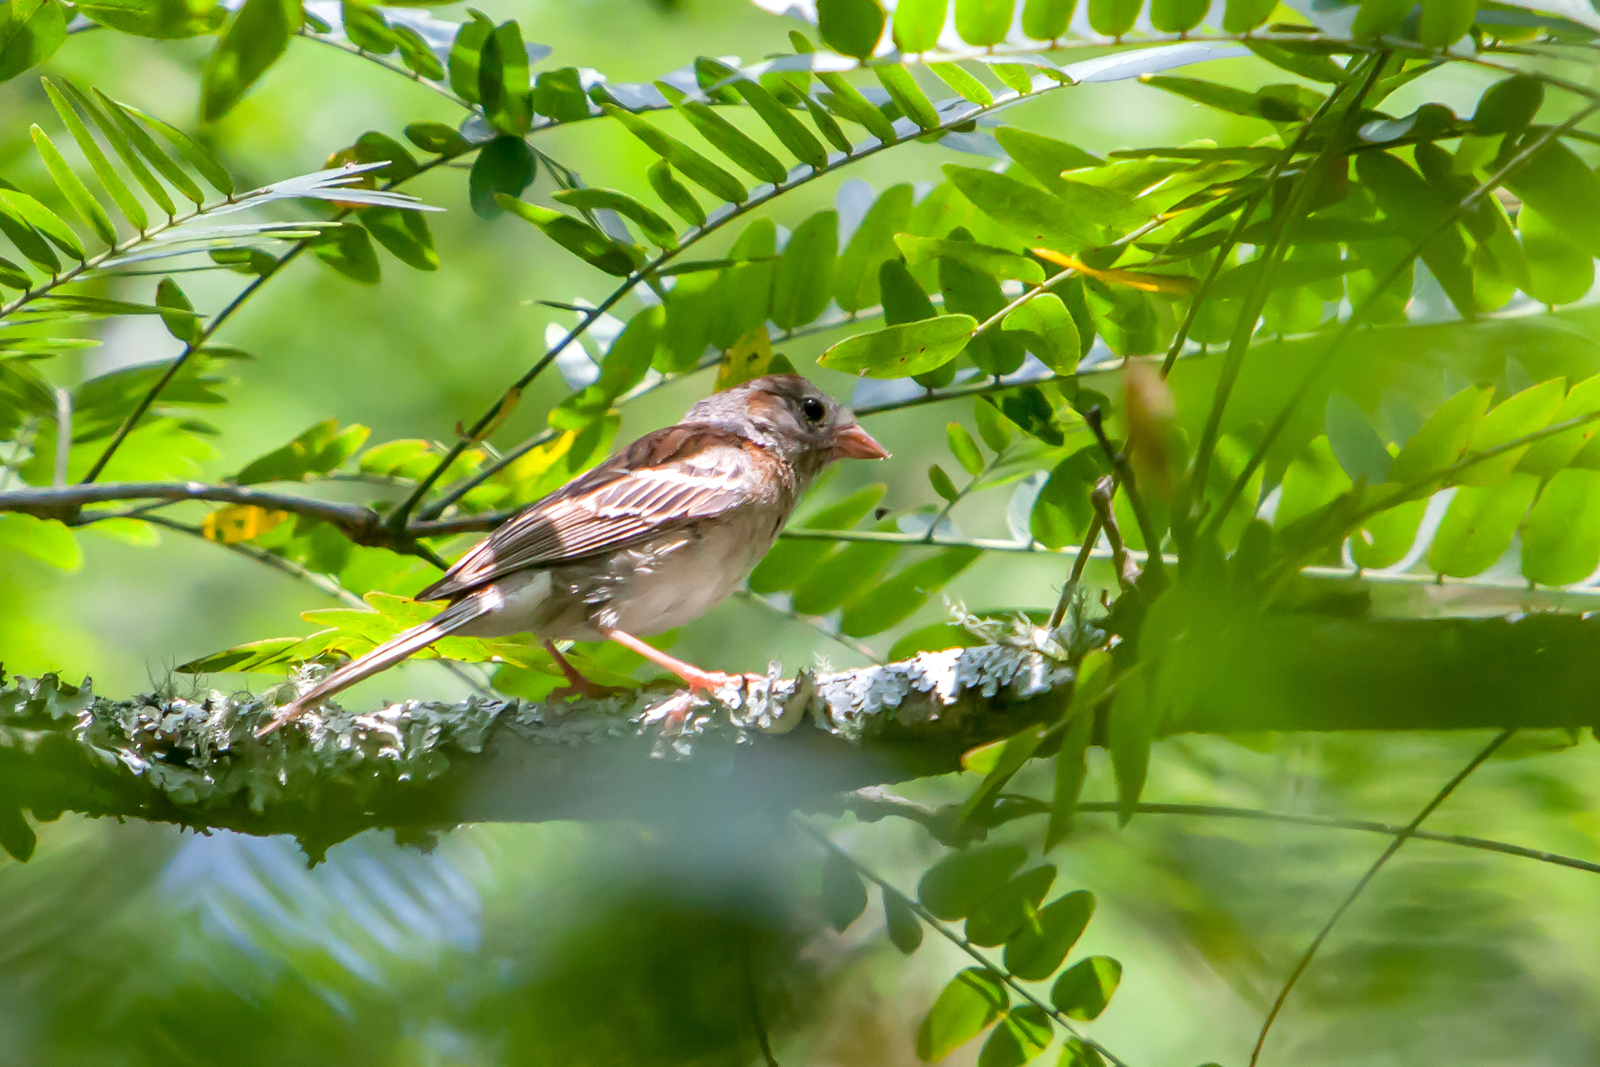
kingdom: Animalia
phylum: Chordata
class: Aves
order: Passeriformes
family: Passerellidae
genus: Spizella
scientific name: Spizella pusilla
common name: Field sparrow
